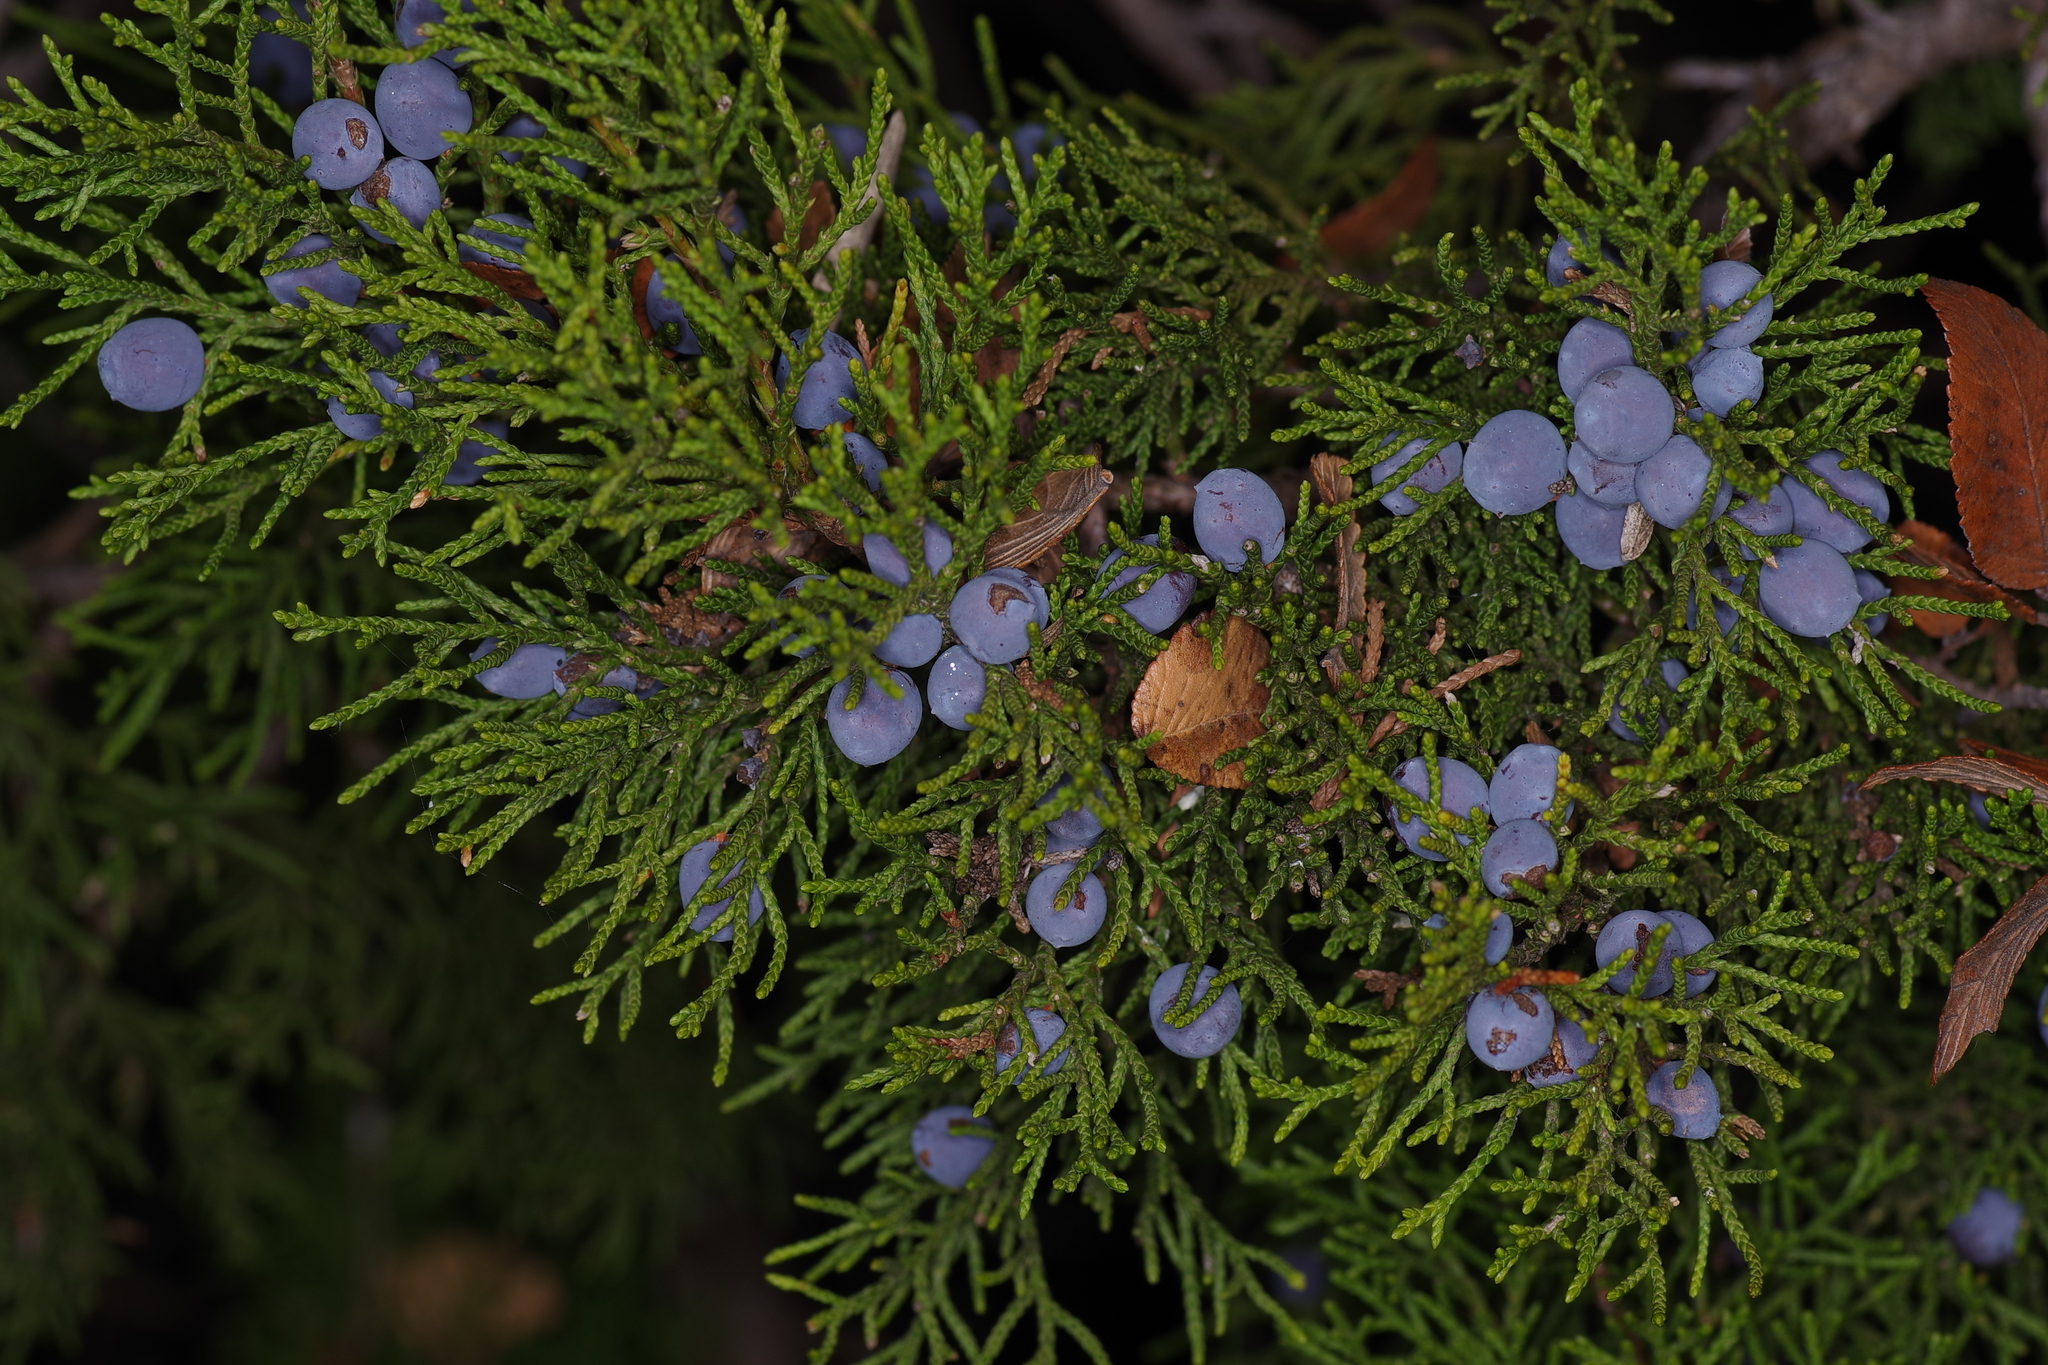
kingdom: Plantae
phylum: Tracheophyta
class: Pinopsida
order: Pinales
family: Cupressaceae
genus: Juniperus
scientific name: Juniperus ashei
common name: Mexican juniper
